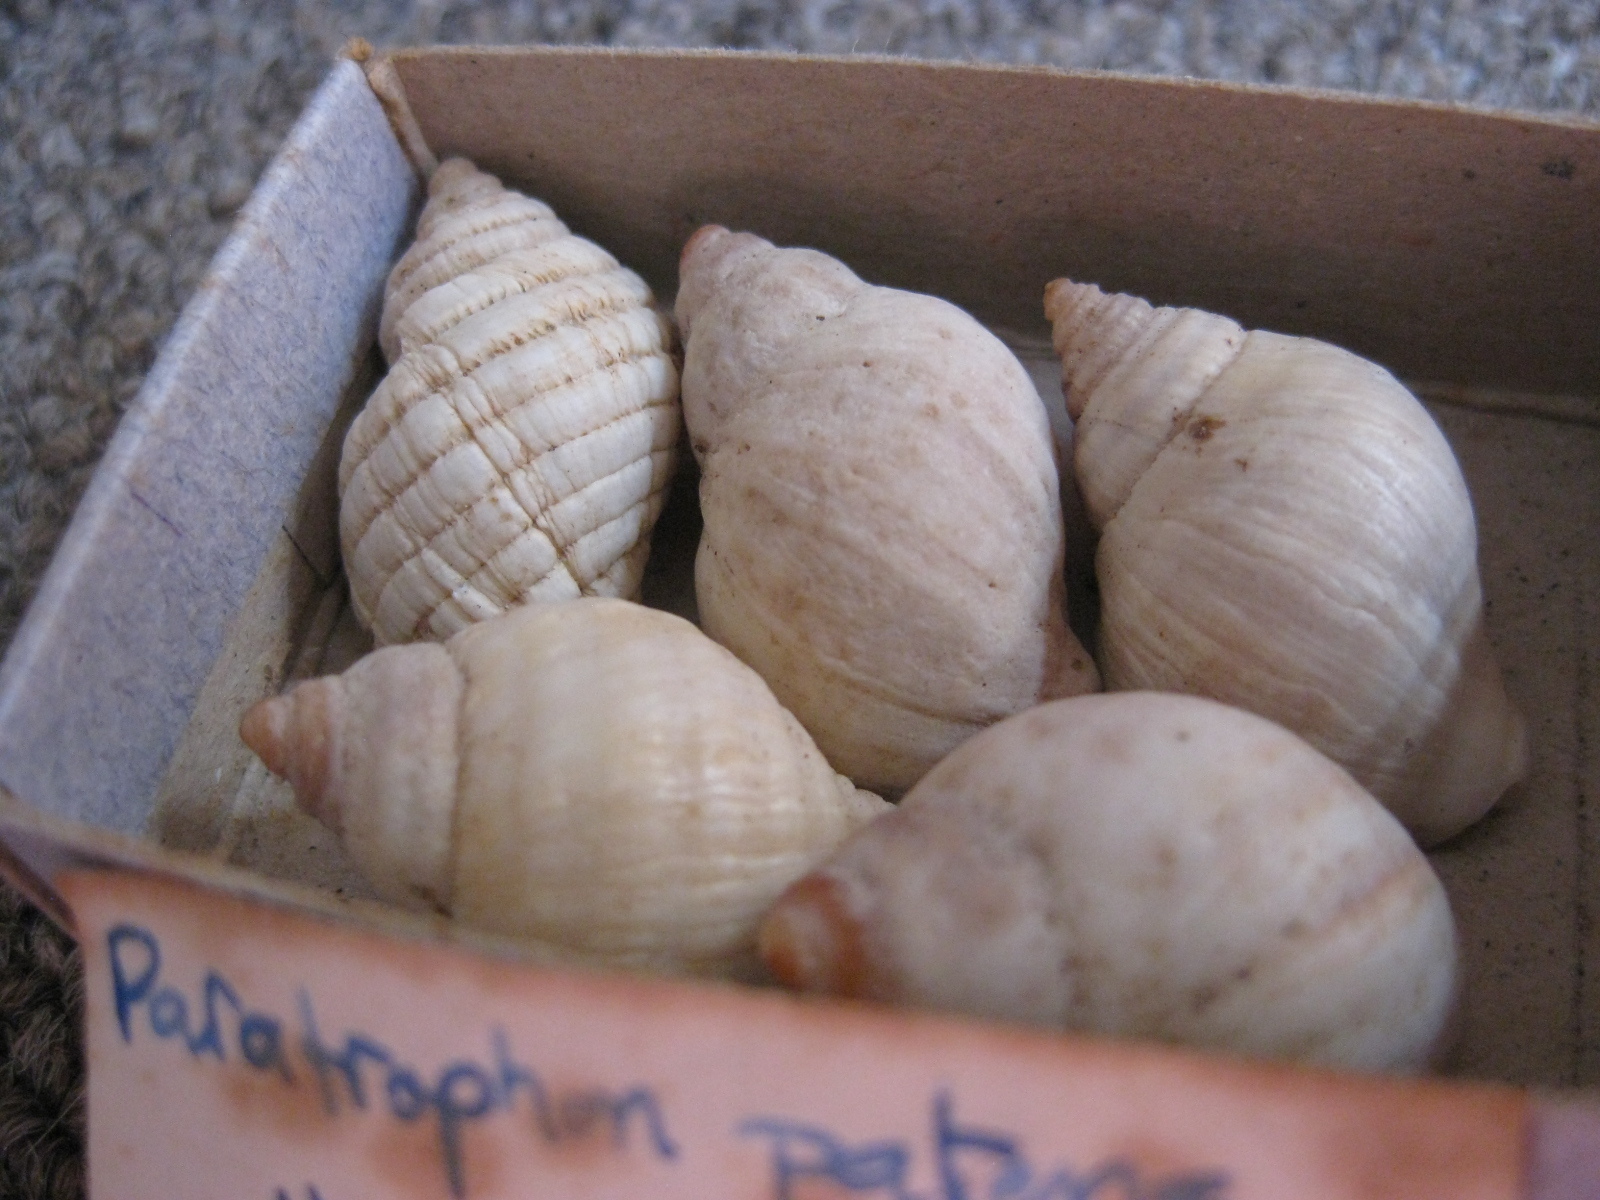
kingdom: Animalia
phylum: Mollusca
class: Gastropoda
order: Neogastropoda
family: Muricidae
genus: Paratrophon
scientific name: Paratrophon patens
